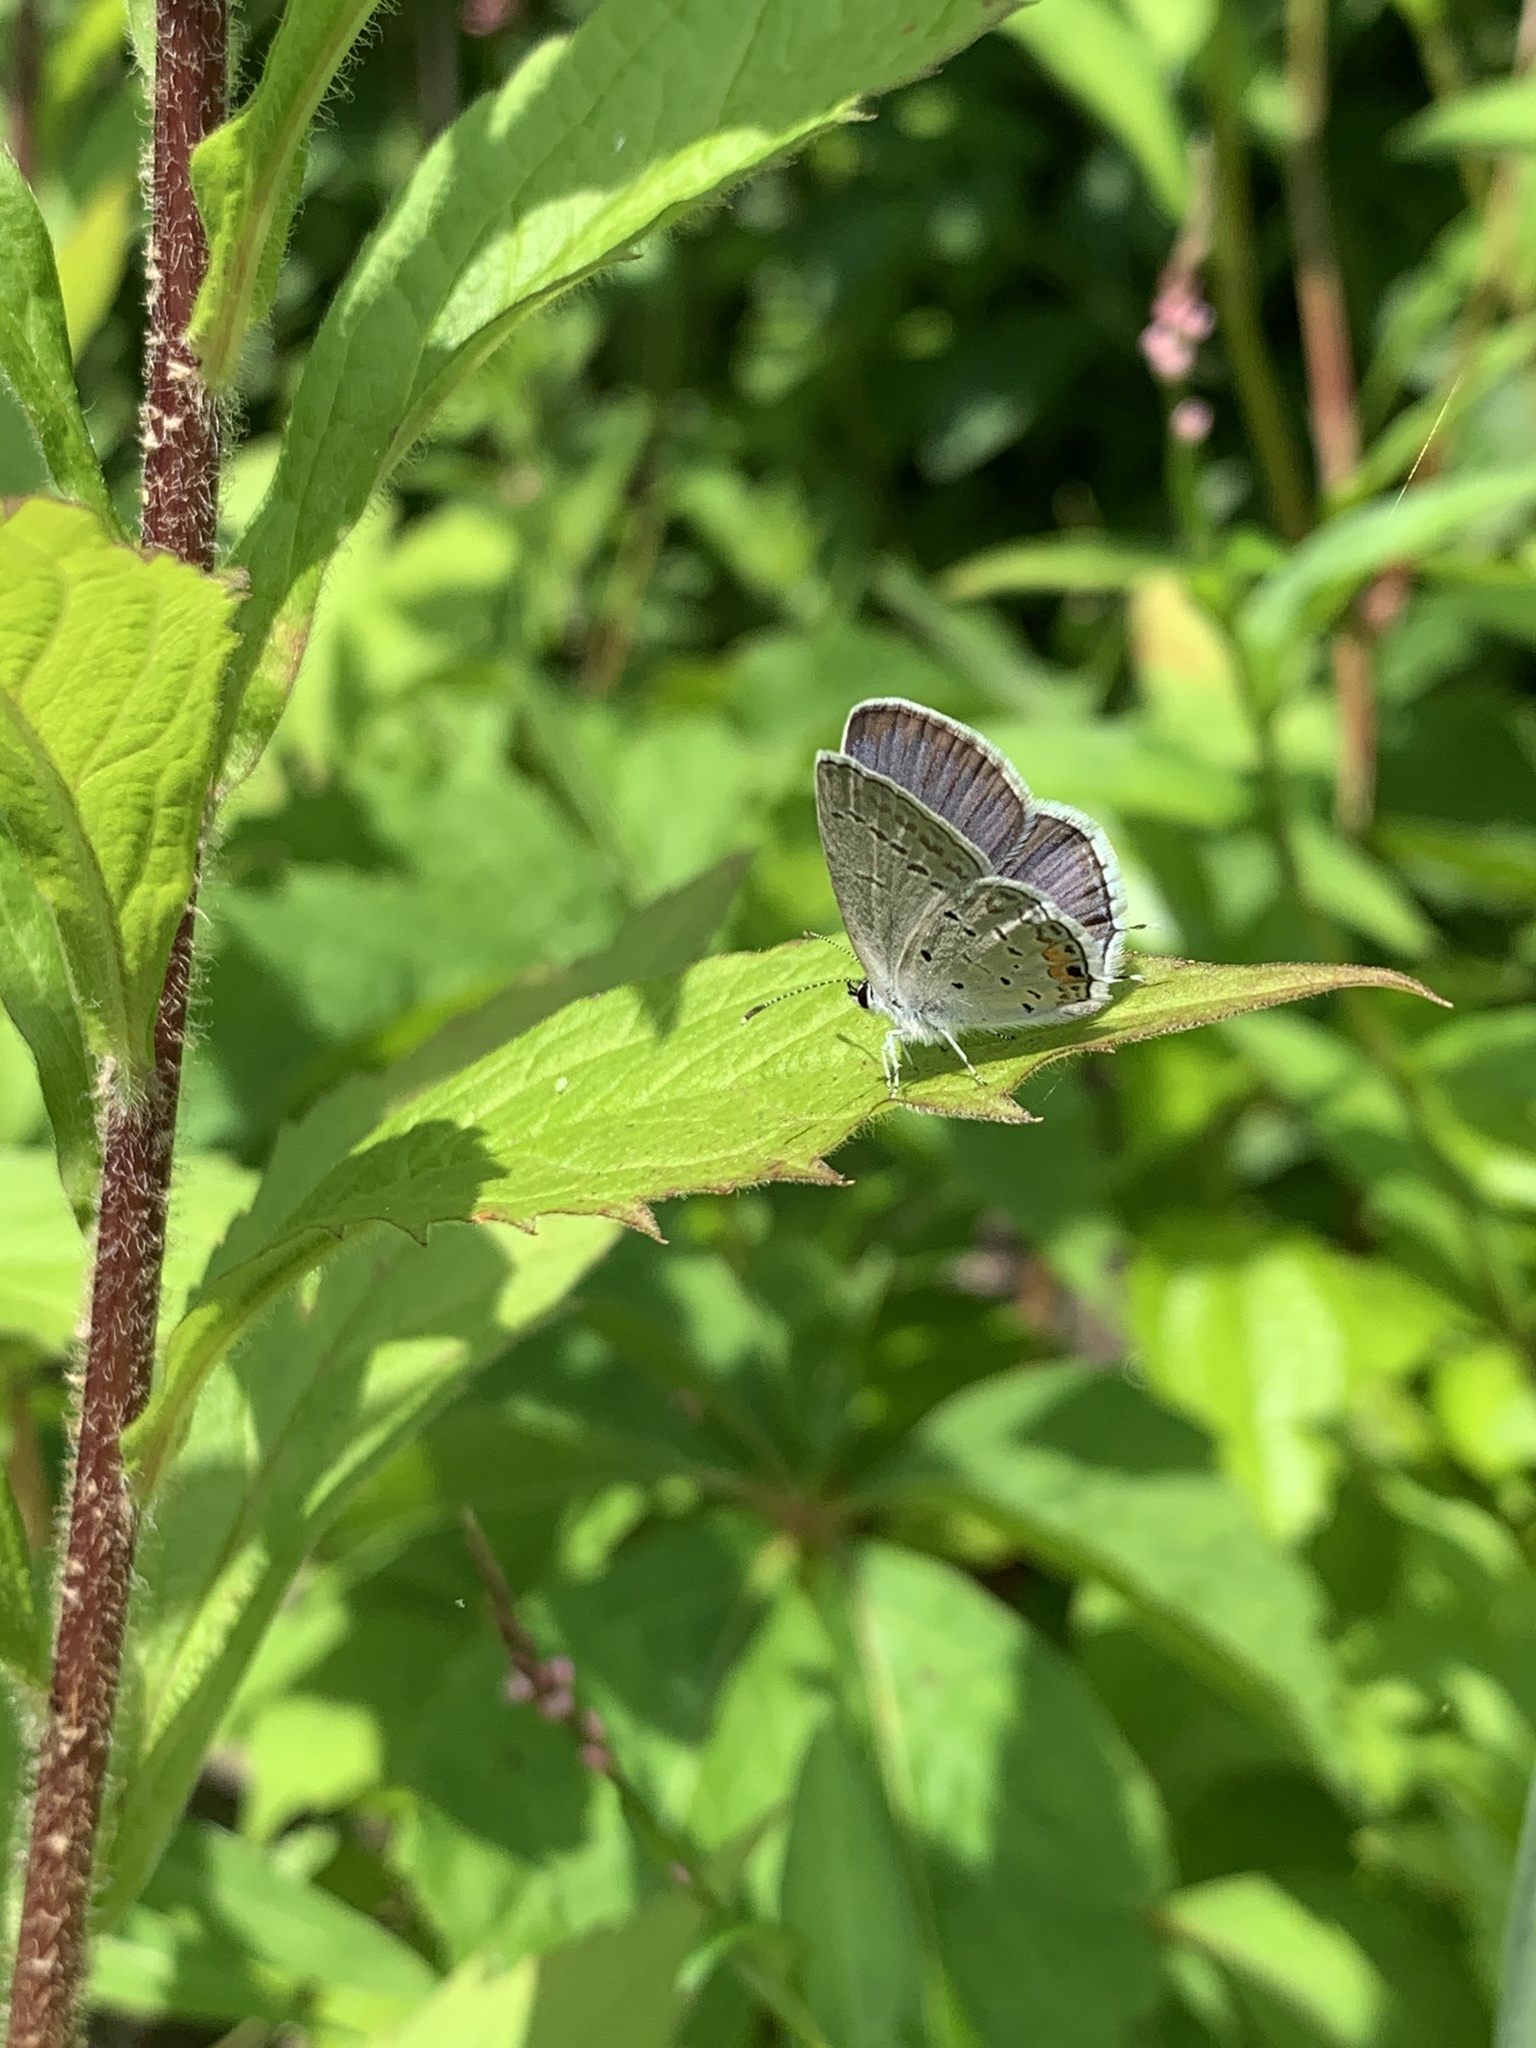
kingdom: Animalia
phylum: Arthropoda
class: Insecta
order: Lepidoptera
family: Lycaenidae
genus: Elkalyce
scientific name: Elkalyce comyntas
